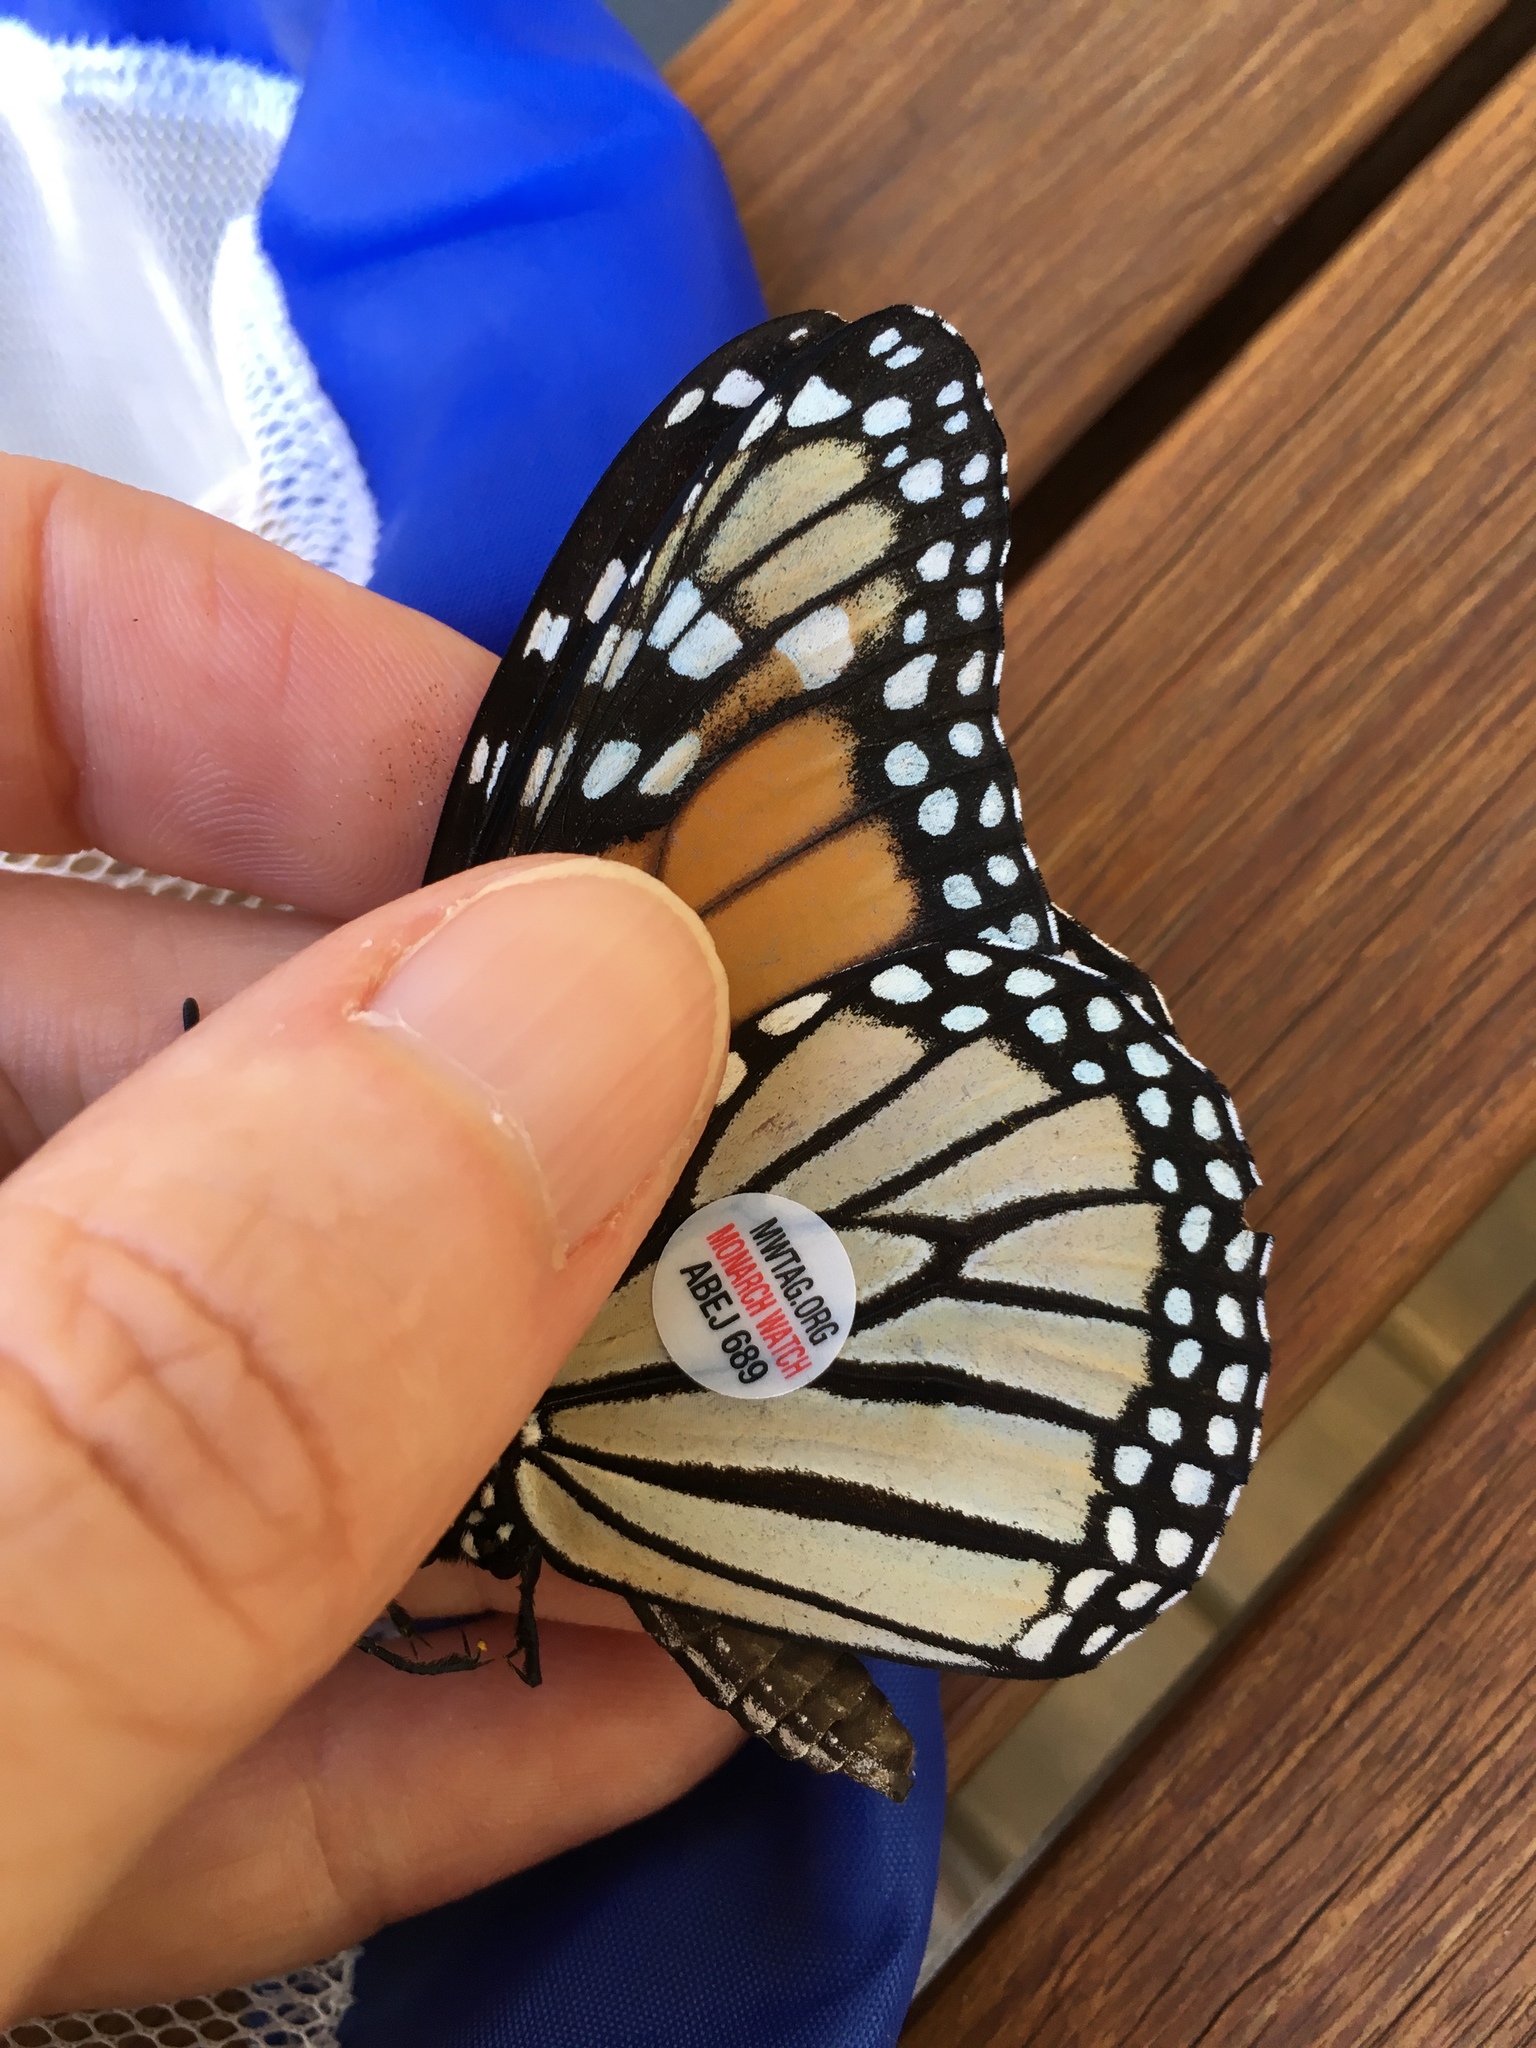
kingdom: Animalia
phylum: Arthropoda
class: Insecta
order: Lepidoptera
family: Nymphalidae
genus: Danaus
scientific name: Danaus plexippus
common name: Monarch
